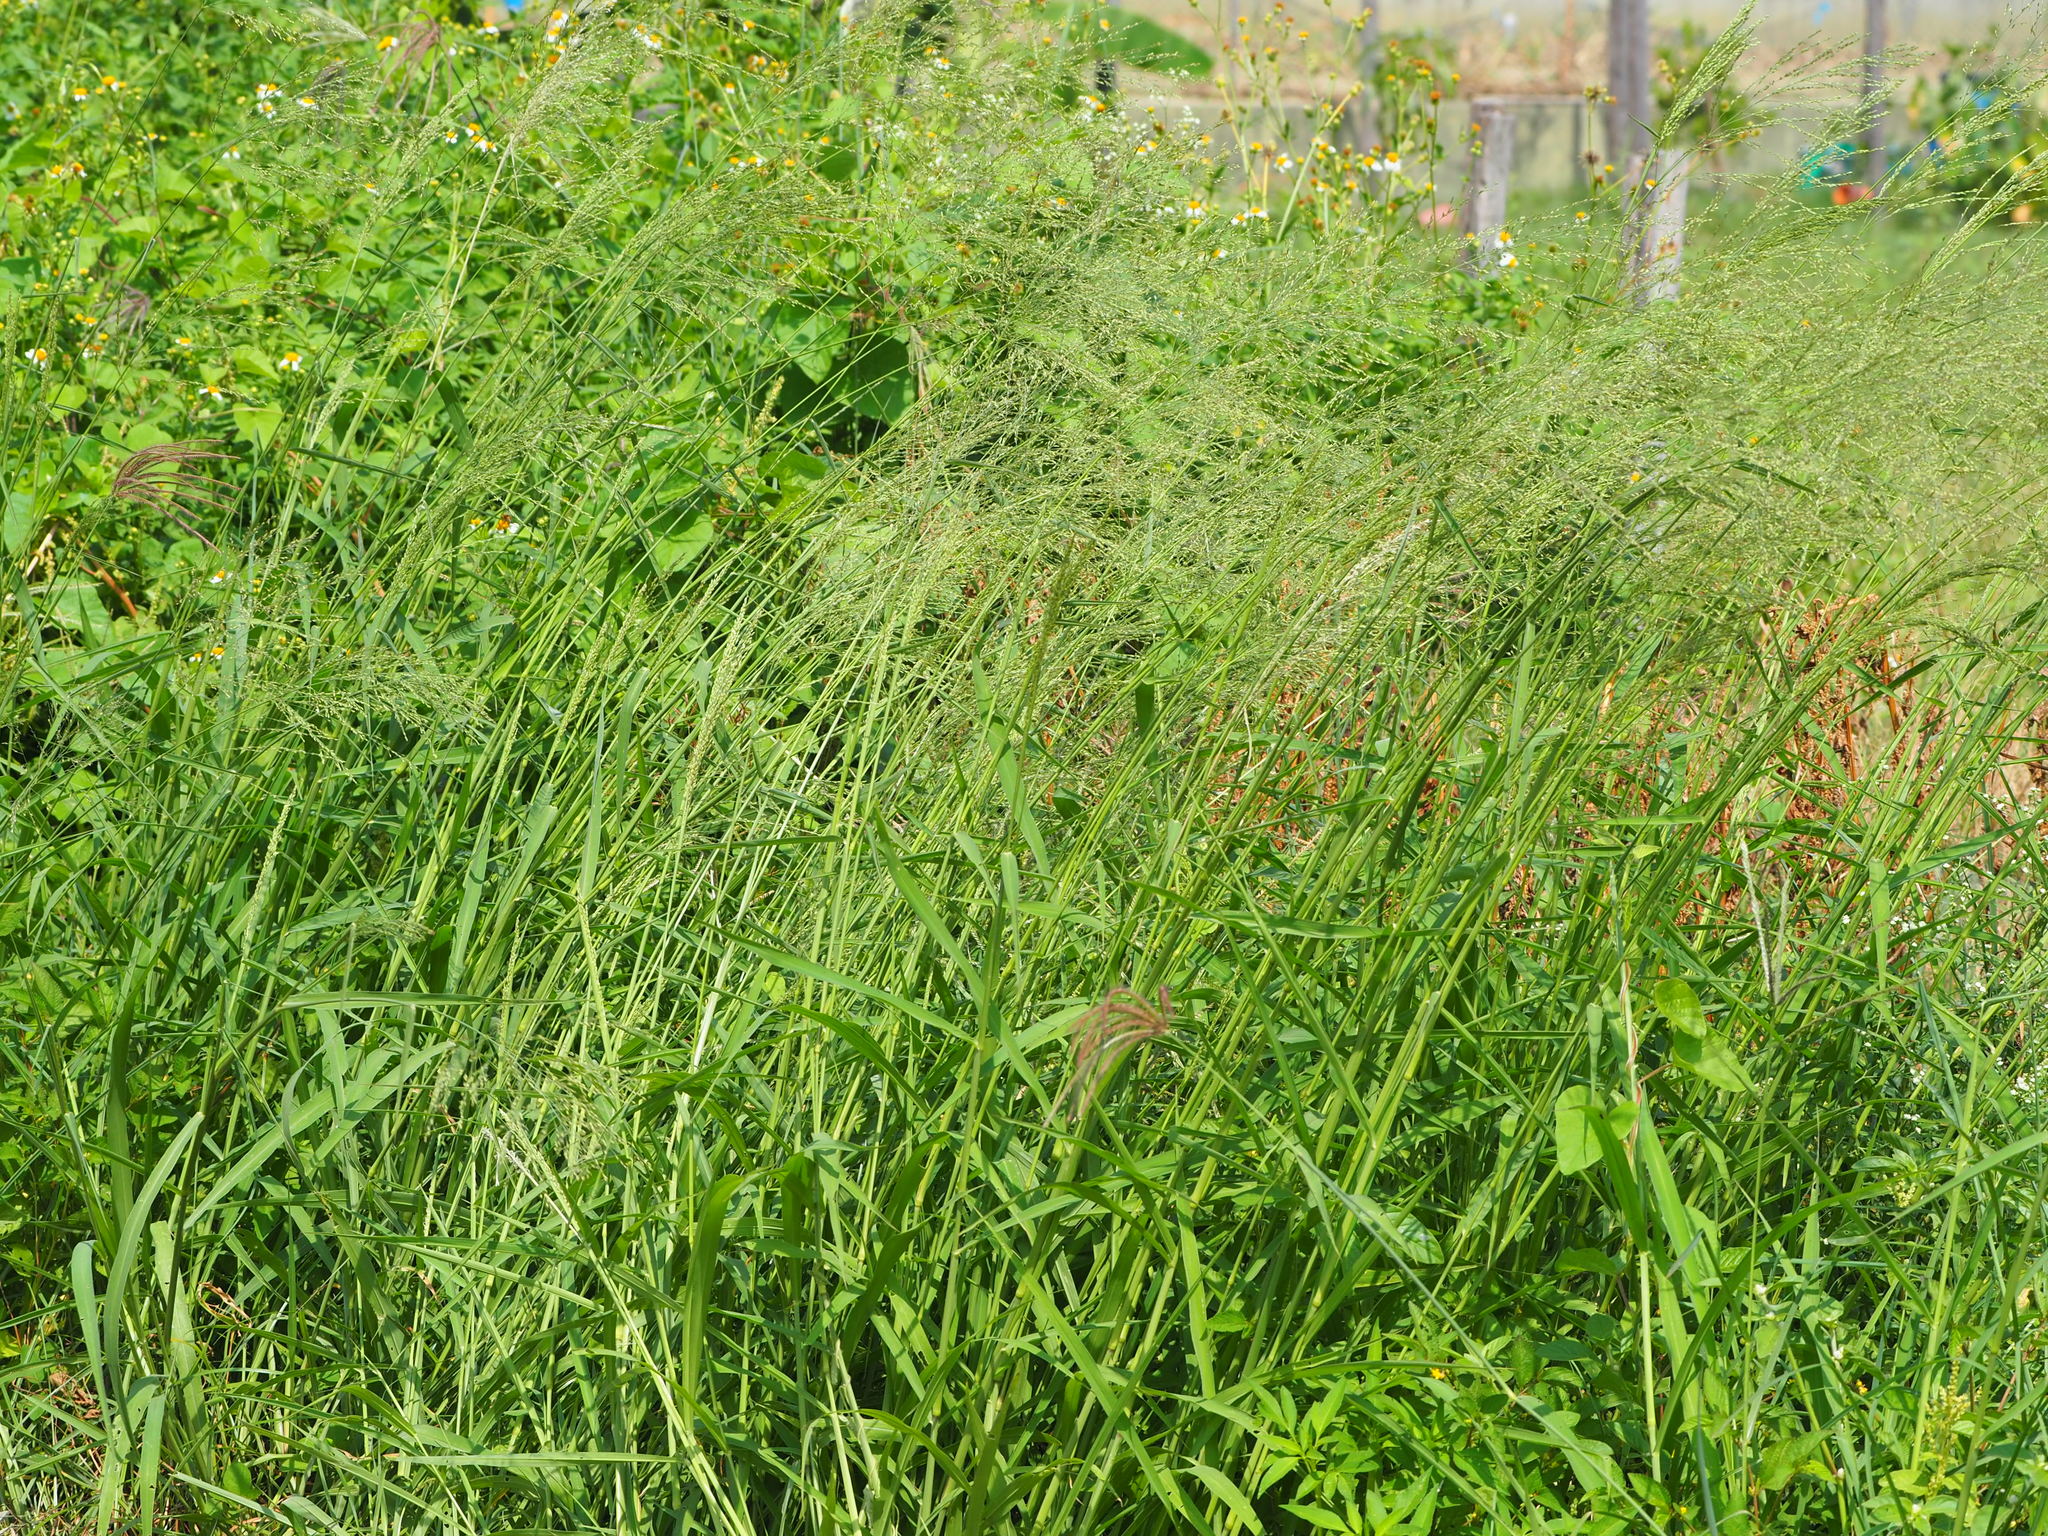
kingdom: Plantae
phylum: Tracheophyta
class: Liliopsida
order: Poales
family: Poaceae
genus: Megathyrsus
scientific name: Megathyrsus maximus
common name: Guineagrass
